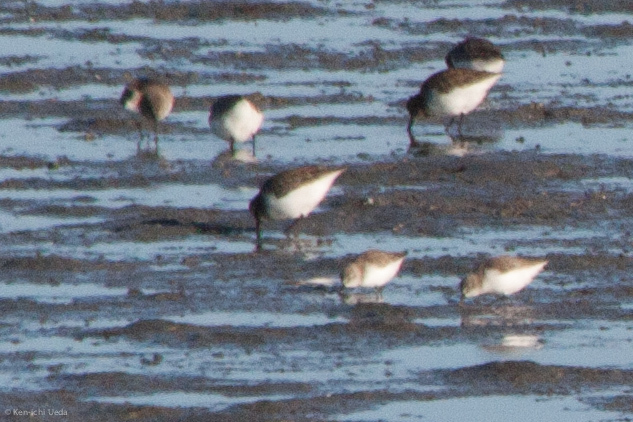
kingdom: Animalia
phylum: Chordata
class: Aves
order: Charadriiformes
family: Scolopacidae
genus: Calidris
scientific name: Calidris mauri
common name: Western sandpiper
